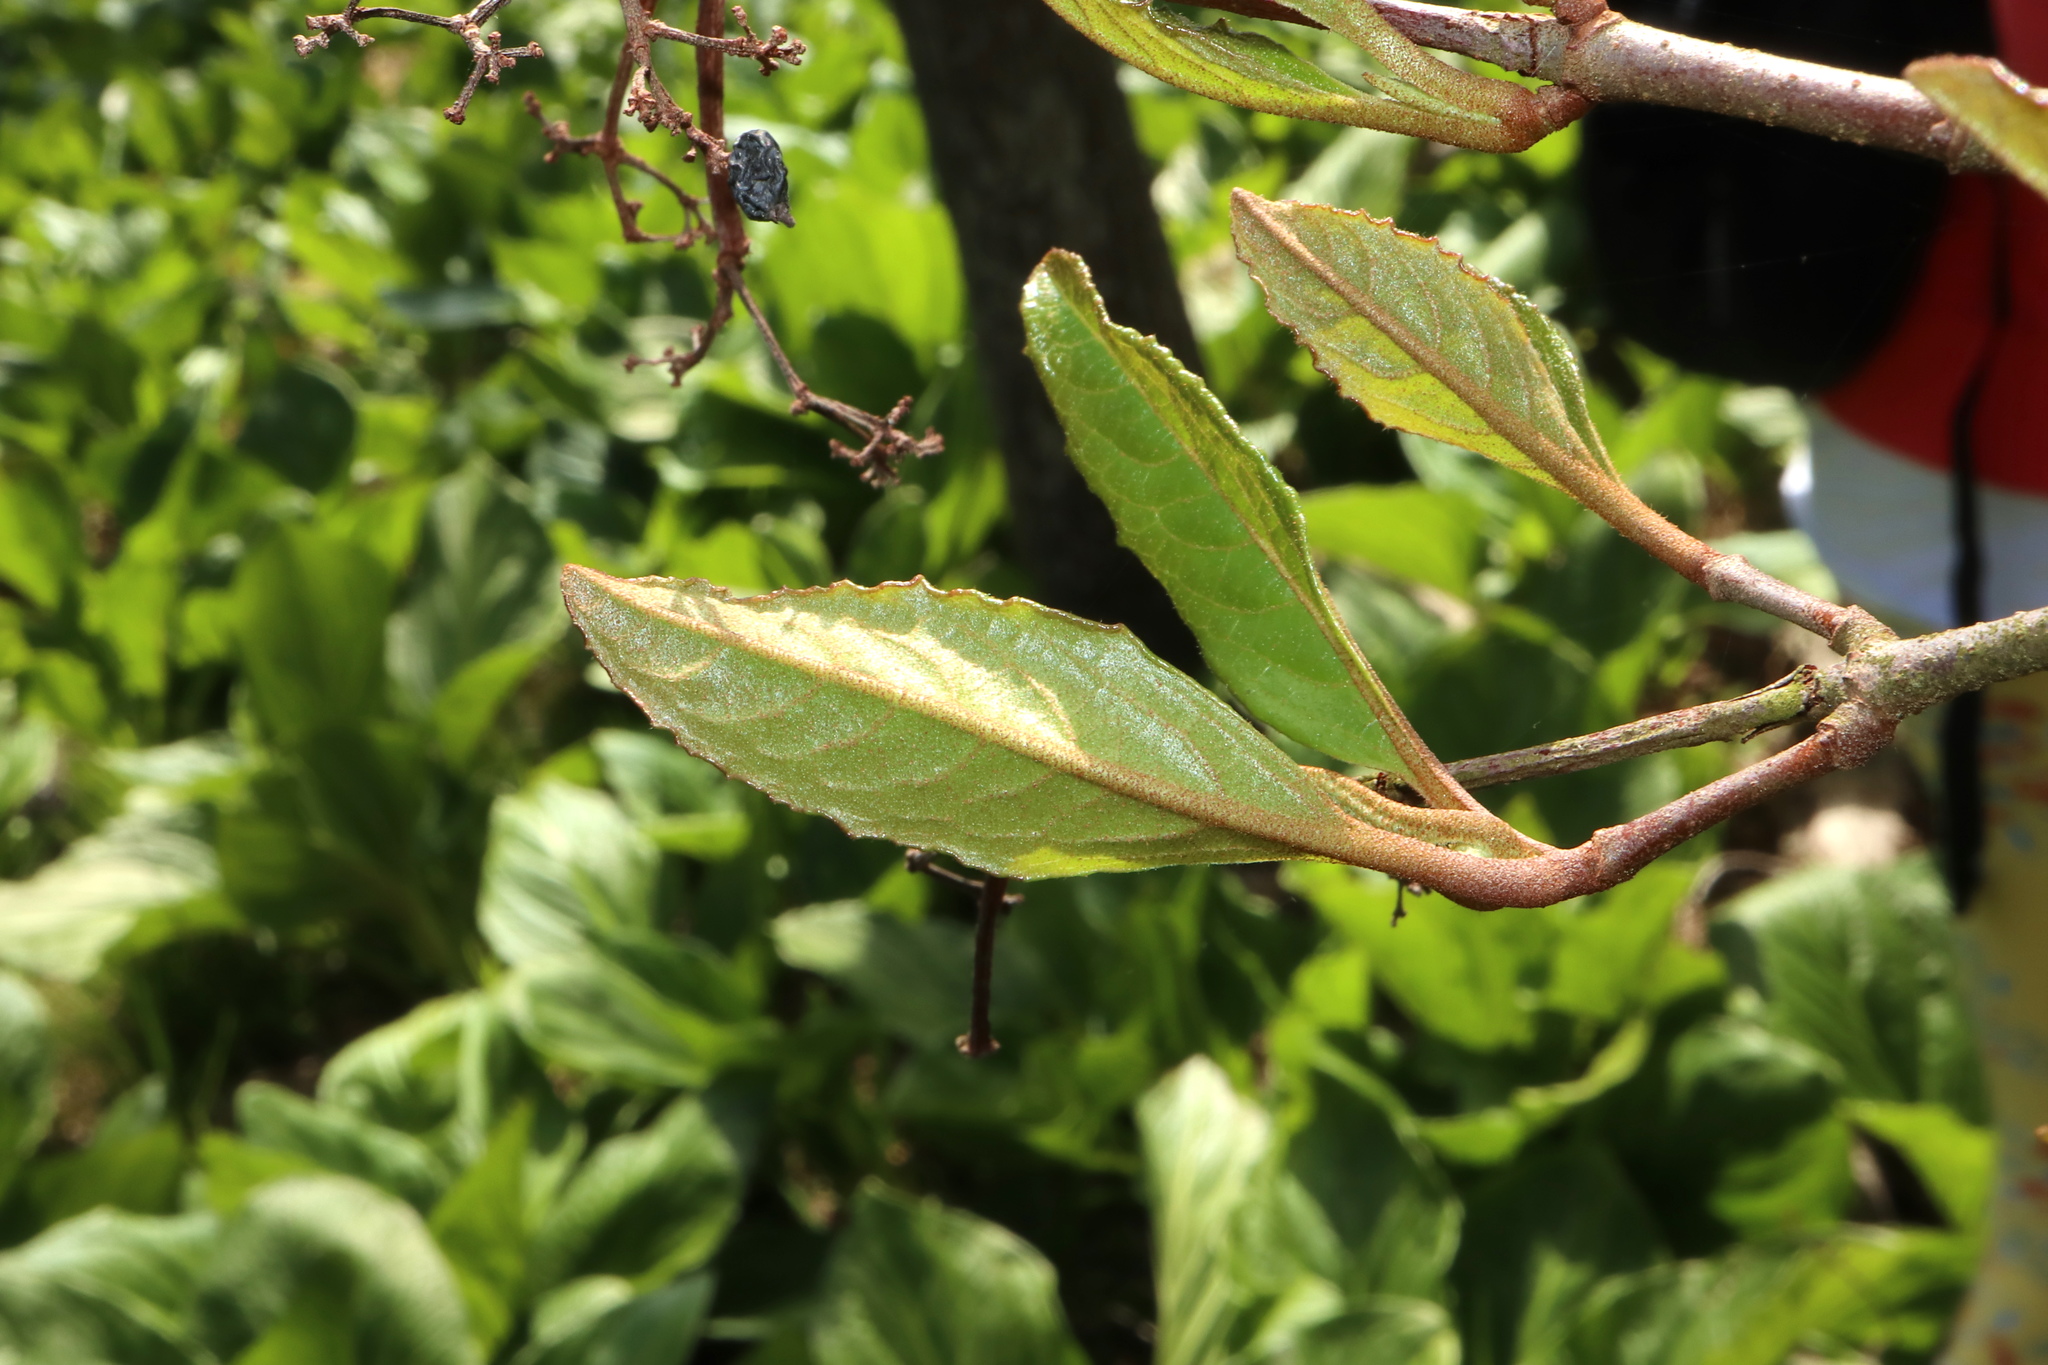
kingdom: Plantae
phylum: Tracheophyta
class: Magnoliopsida
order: Lamiales
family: Oleaceae
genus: Chionanthus
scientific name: Chionanthus virginicus
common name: American fringetree
